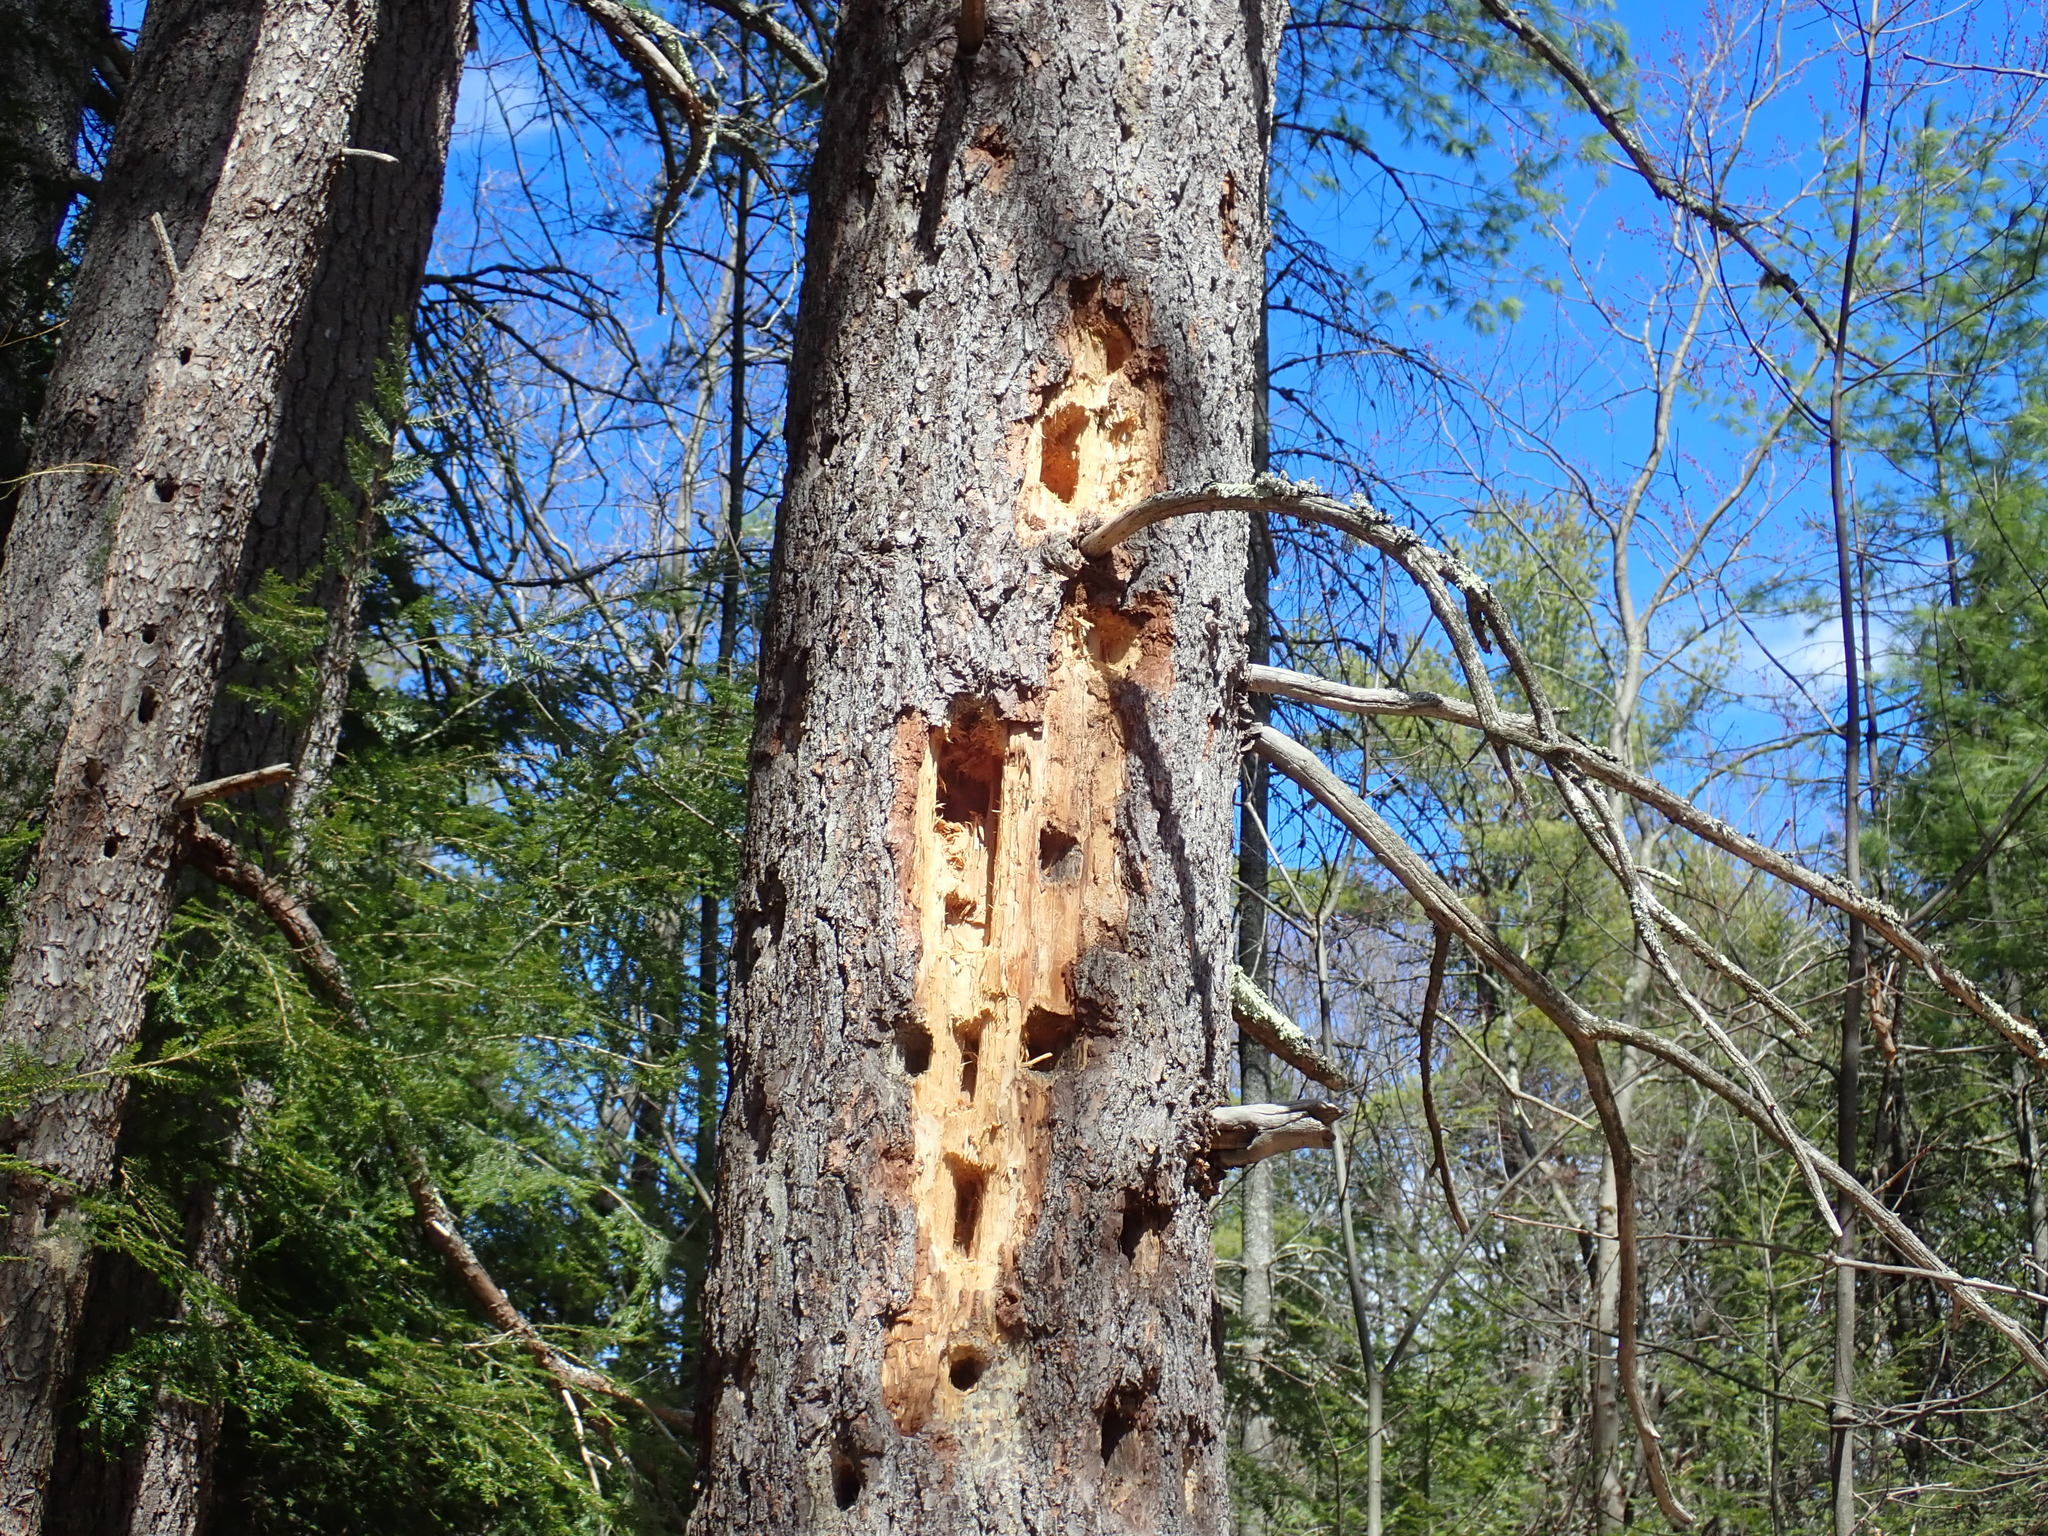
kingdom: Animalia
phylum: Chordata
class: Aves
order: Piciformes
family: Picidae
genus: Dryocopus
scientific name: Dryocopus pileatus
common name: Pileated woodpecker
